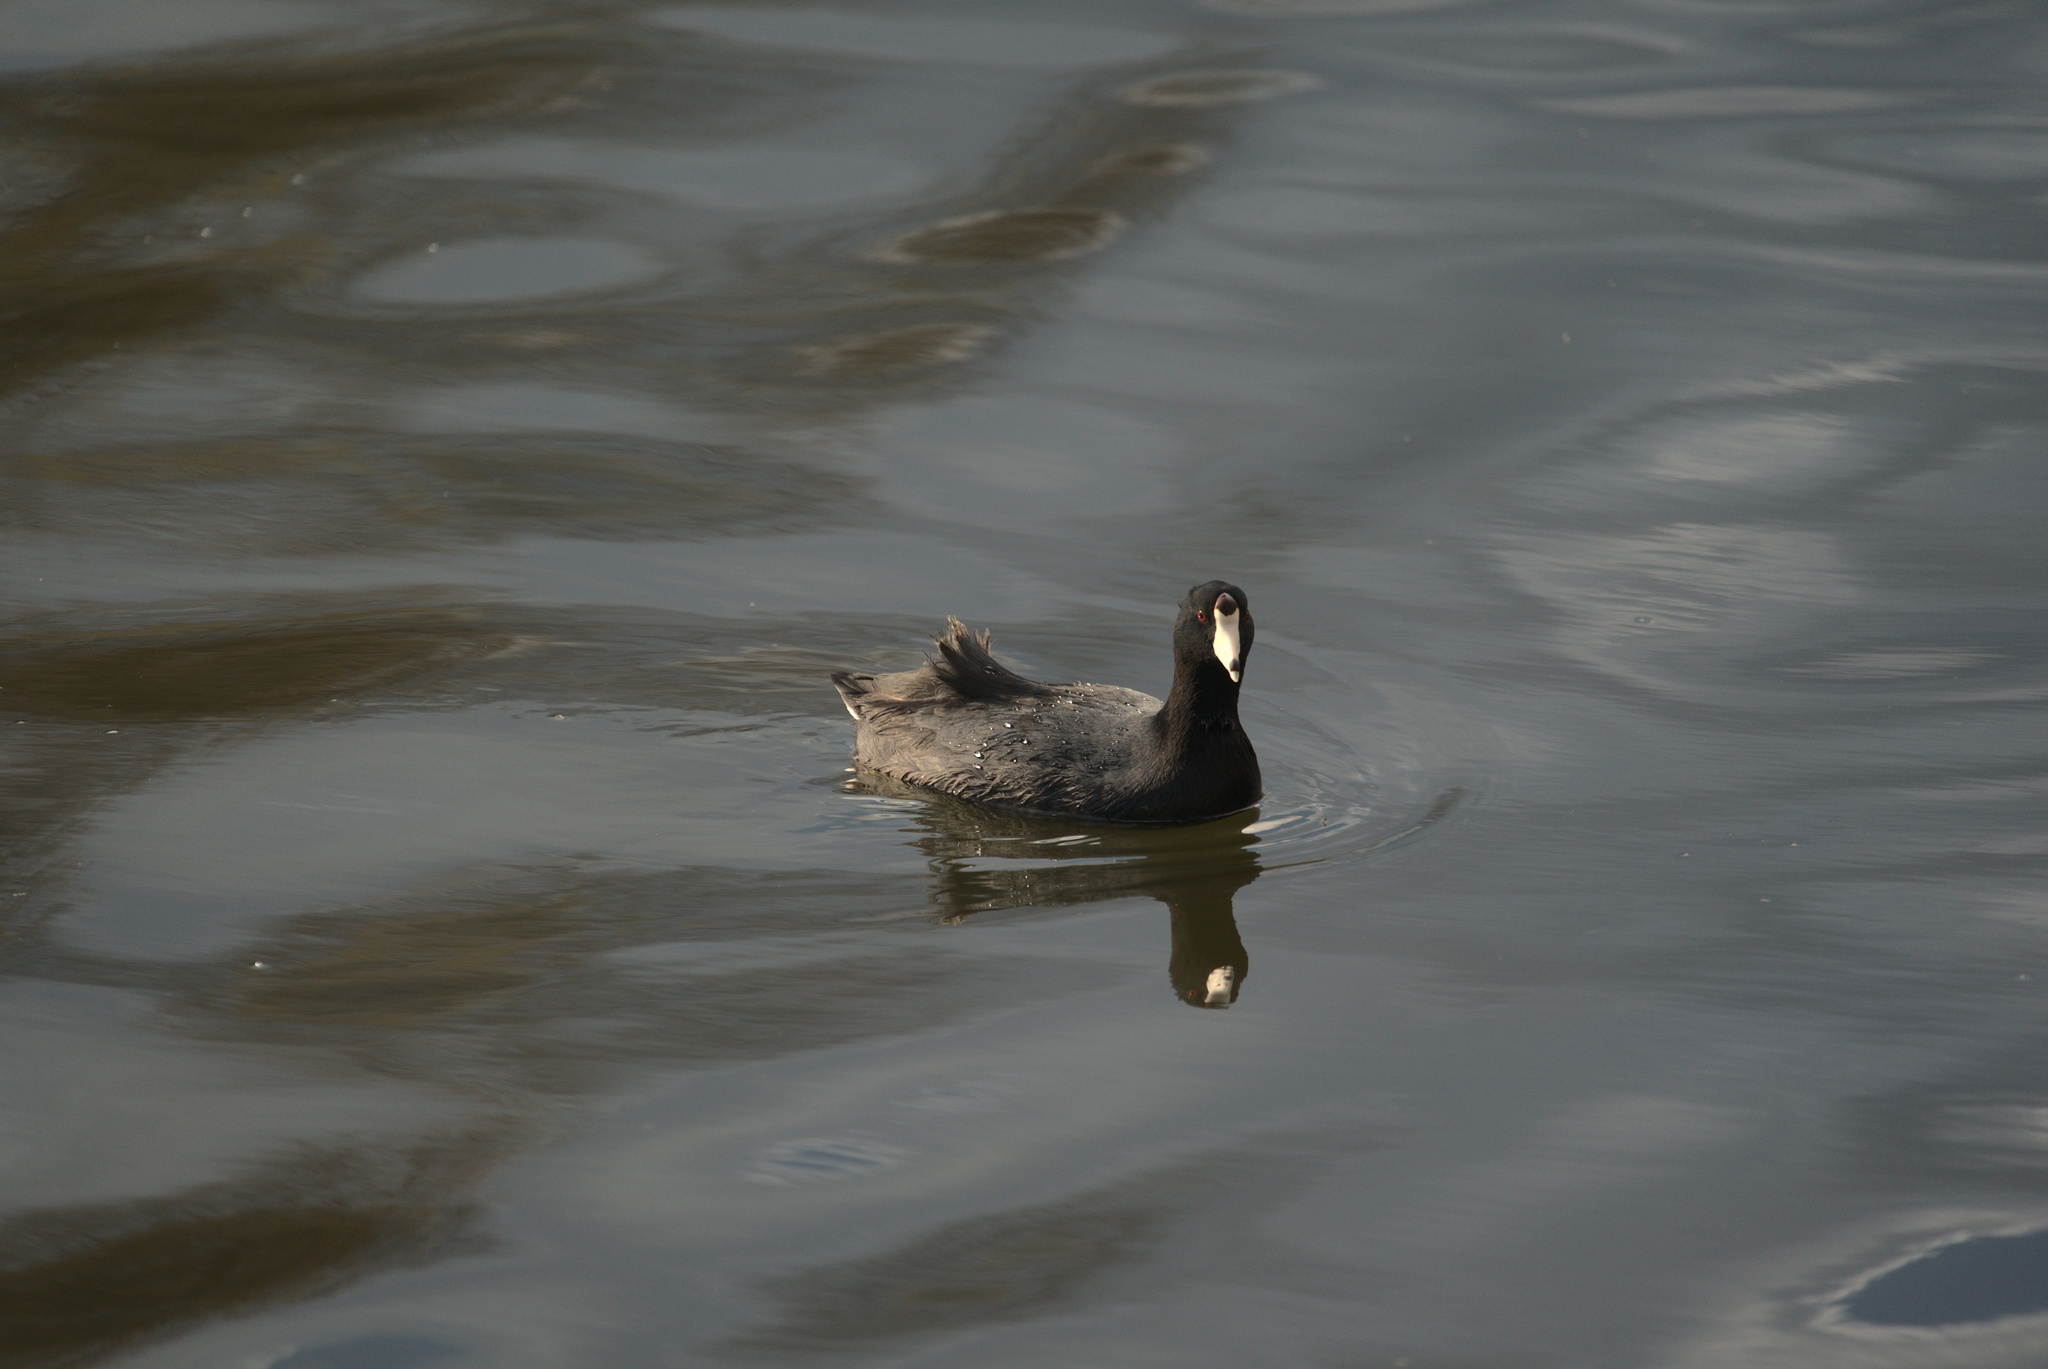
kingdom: Animalia
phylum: Chordata
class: Aves
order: Gruiformes
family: Rallidae
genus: Fulica
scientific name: Fulica americana
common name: American coot
